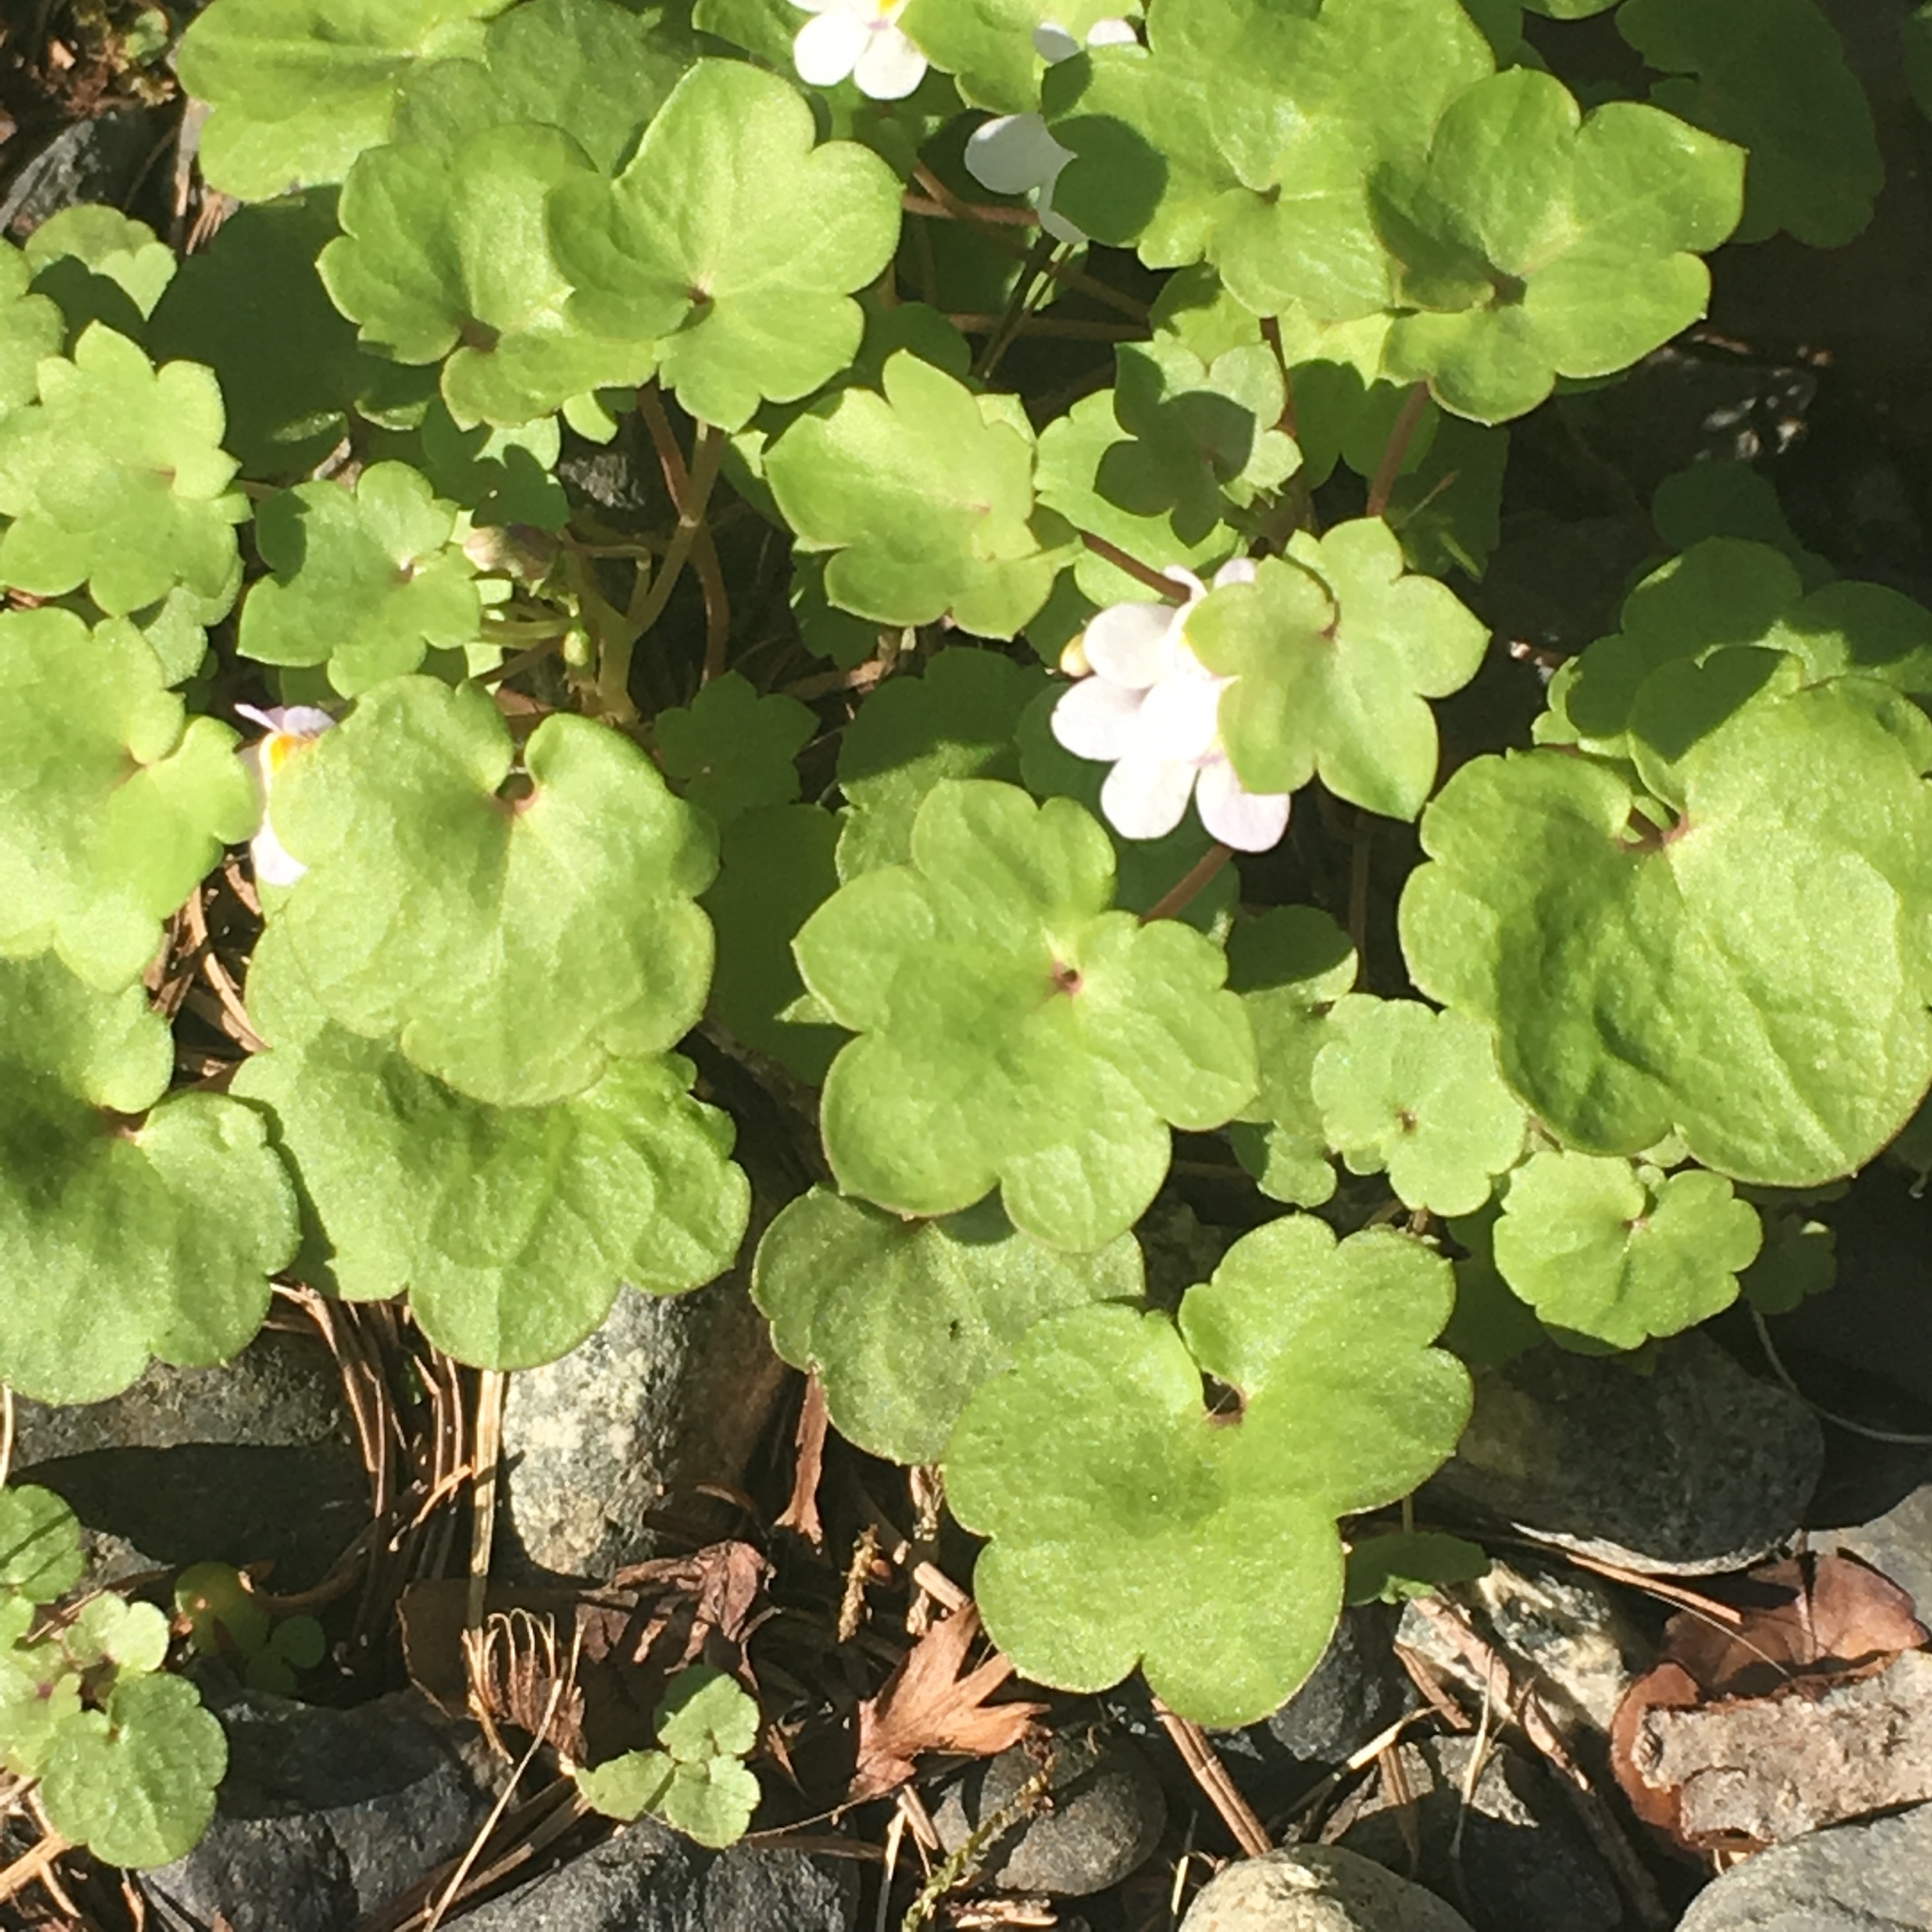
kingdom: Plantae
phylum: Tracheophyta
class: Magnoliopsida
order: Lamiales
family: Plantaginaceae
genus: Cymbalaria
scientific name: Cymbalaria muralis
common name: Ivy-leaved toadflax
